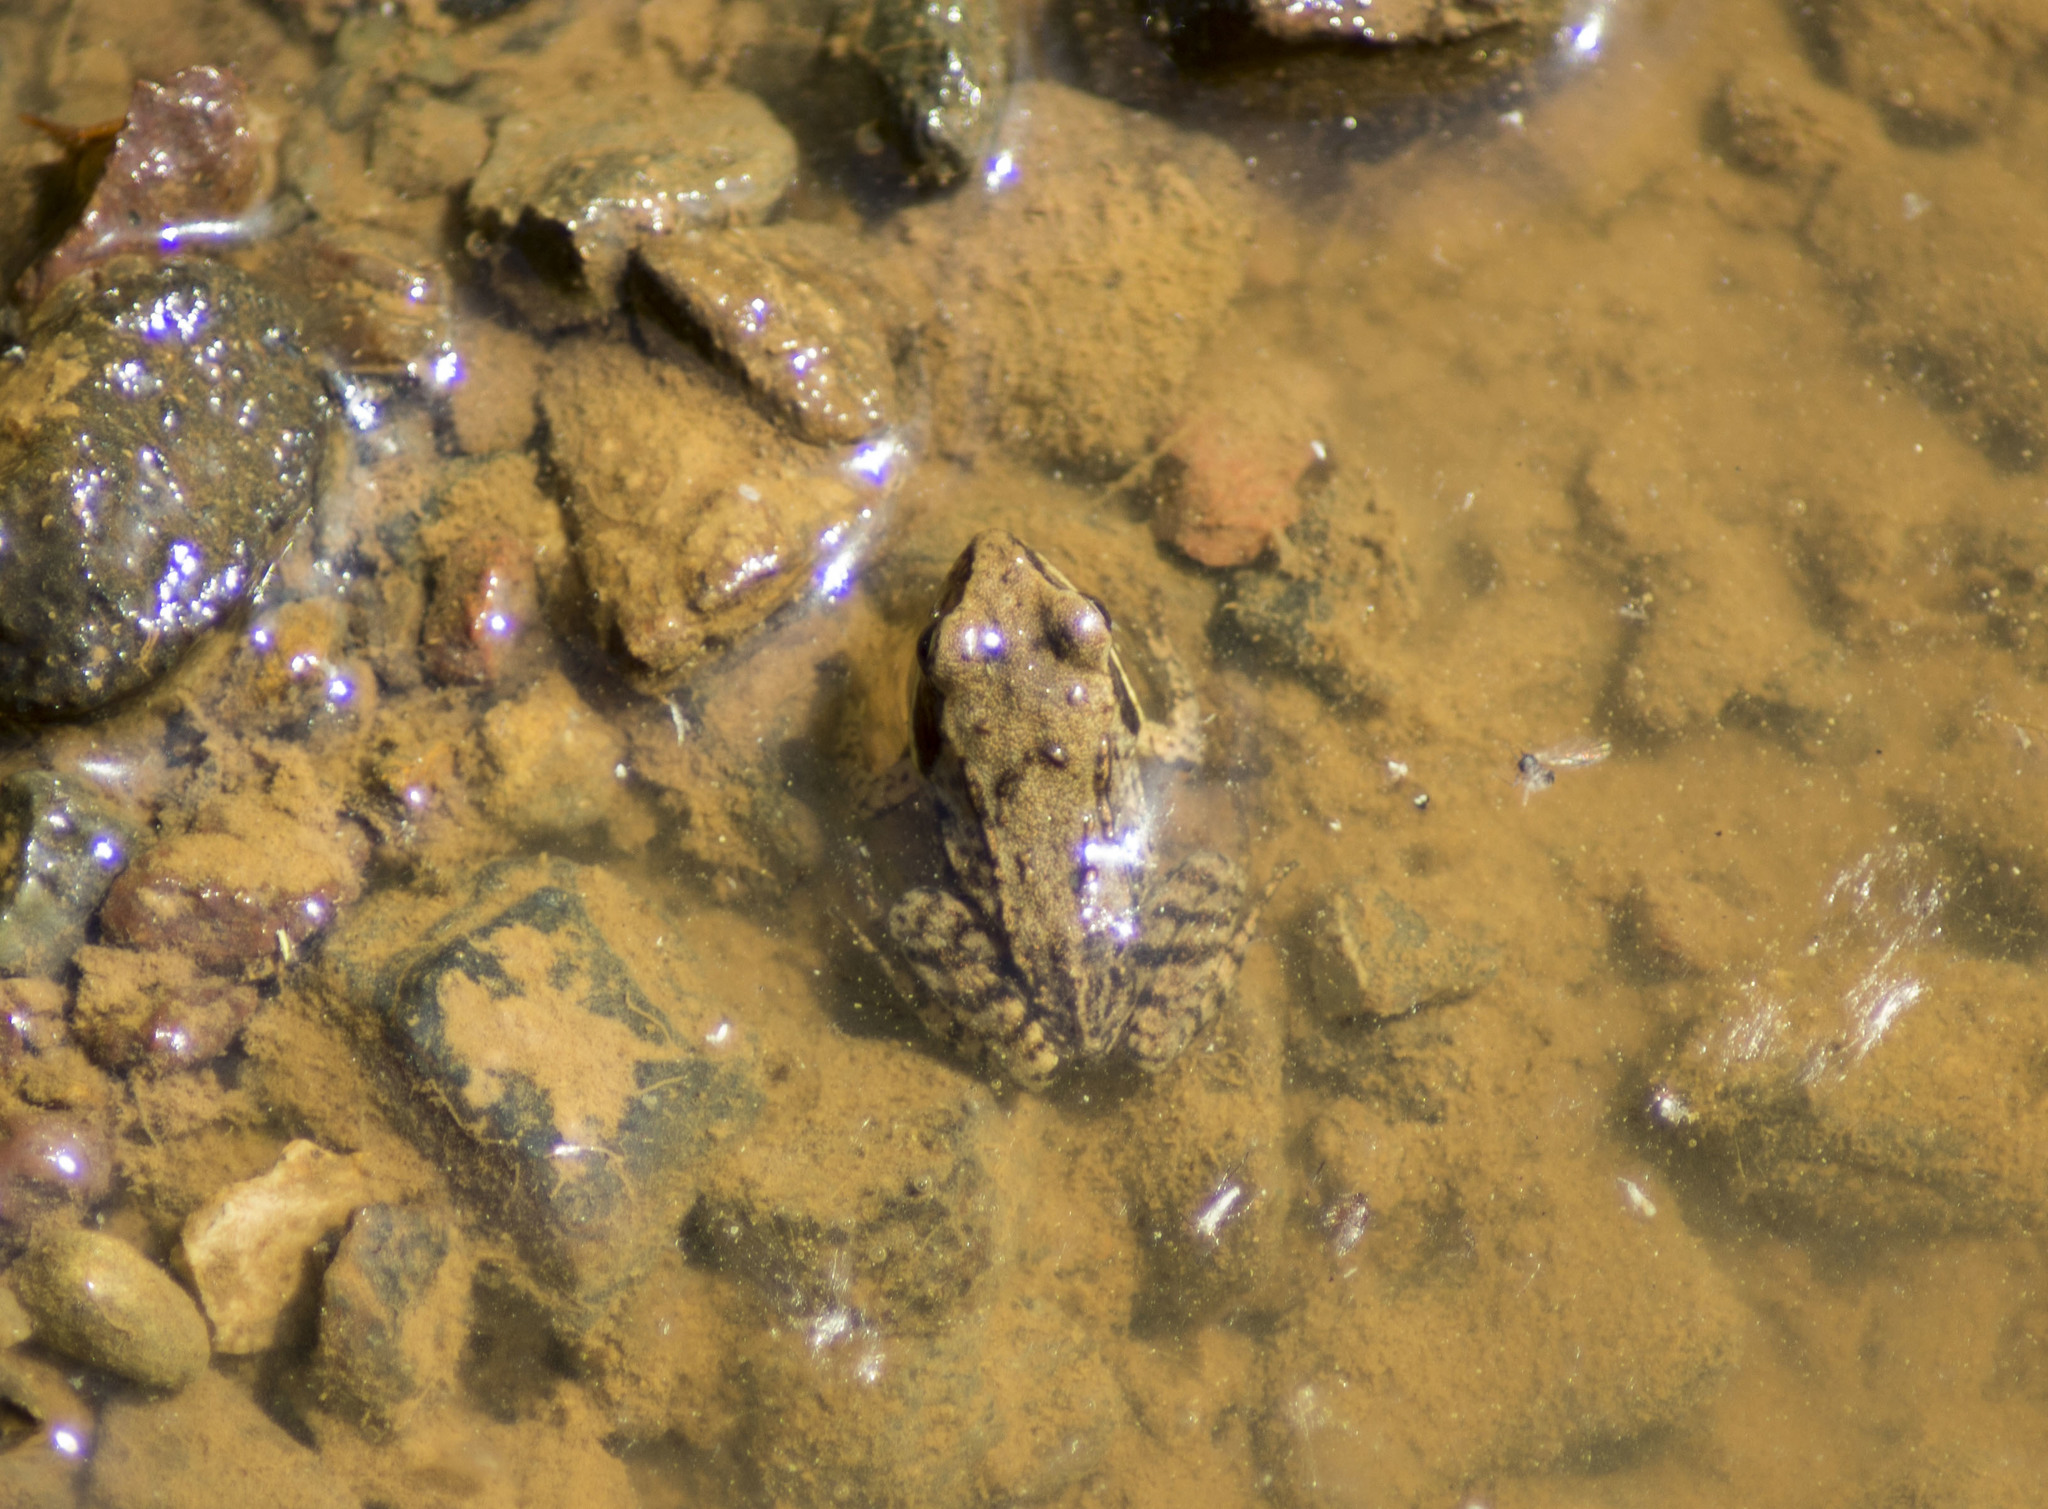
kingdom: Animalia
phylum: Chordata
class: Amphibia
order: Anura
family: Ranidae
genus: Rana
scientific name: Rana arvalis
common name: Moor frog
